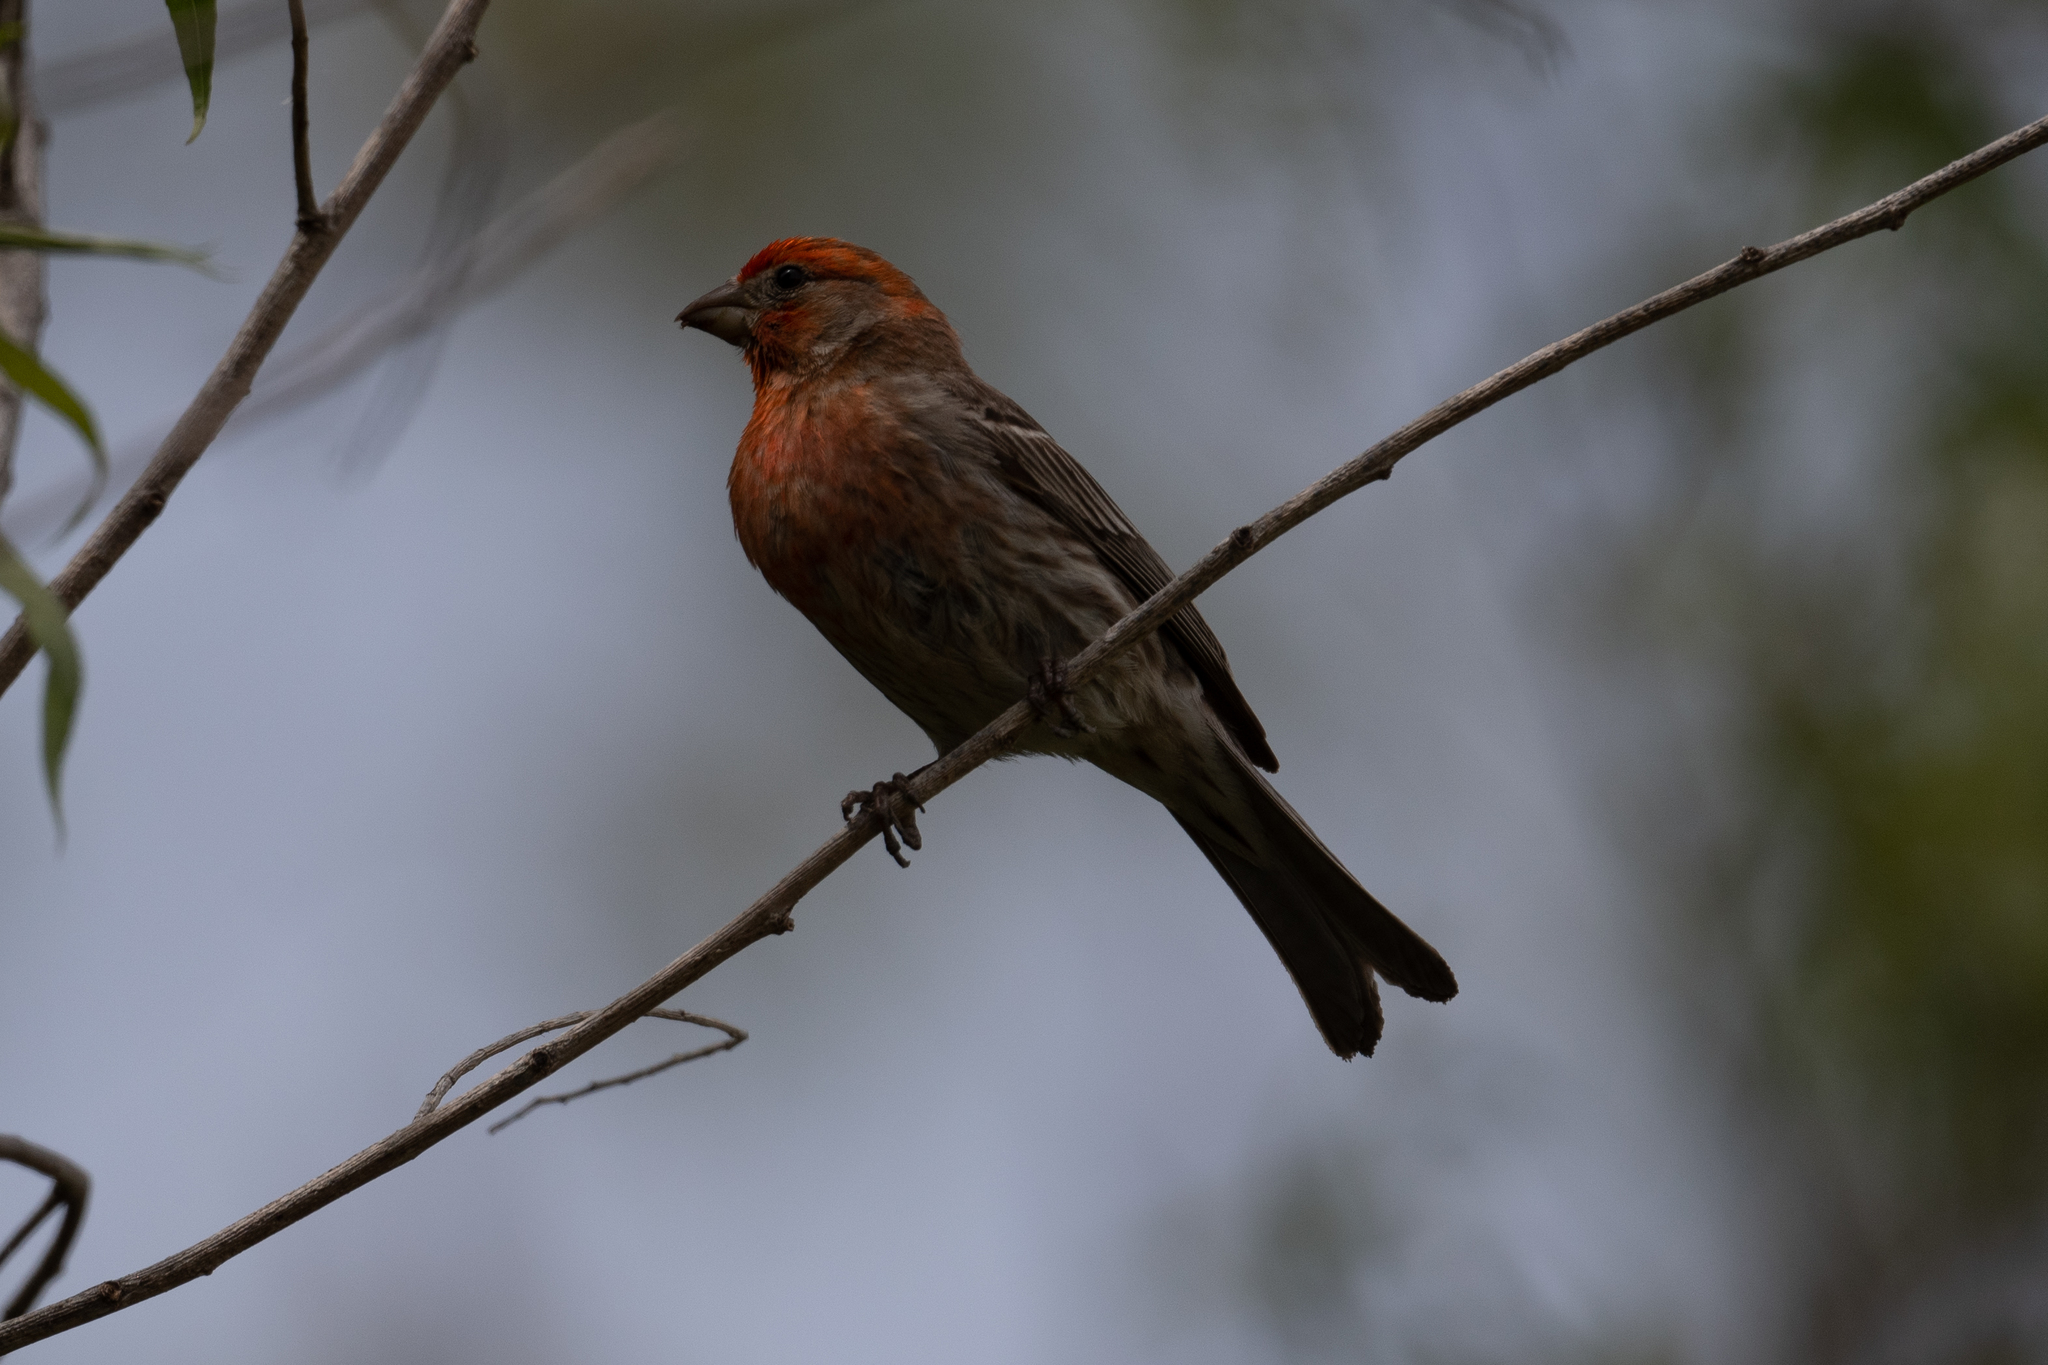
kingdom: Animalia
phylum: Chordata
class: Aves
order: Passeriformes
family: Fringillidae
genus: Haemorhous
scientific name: Haemorhous mexicanus
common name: House finch
